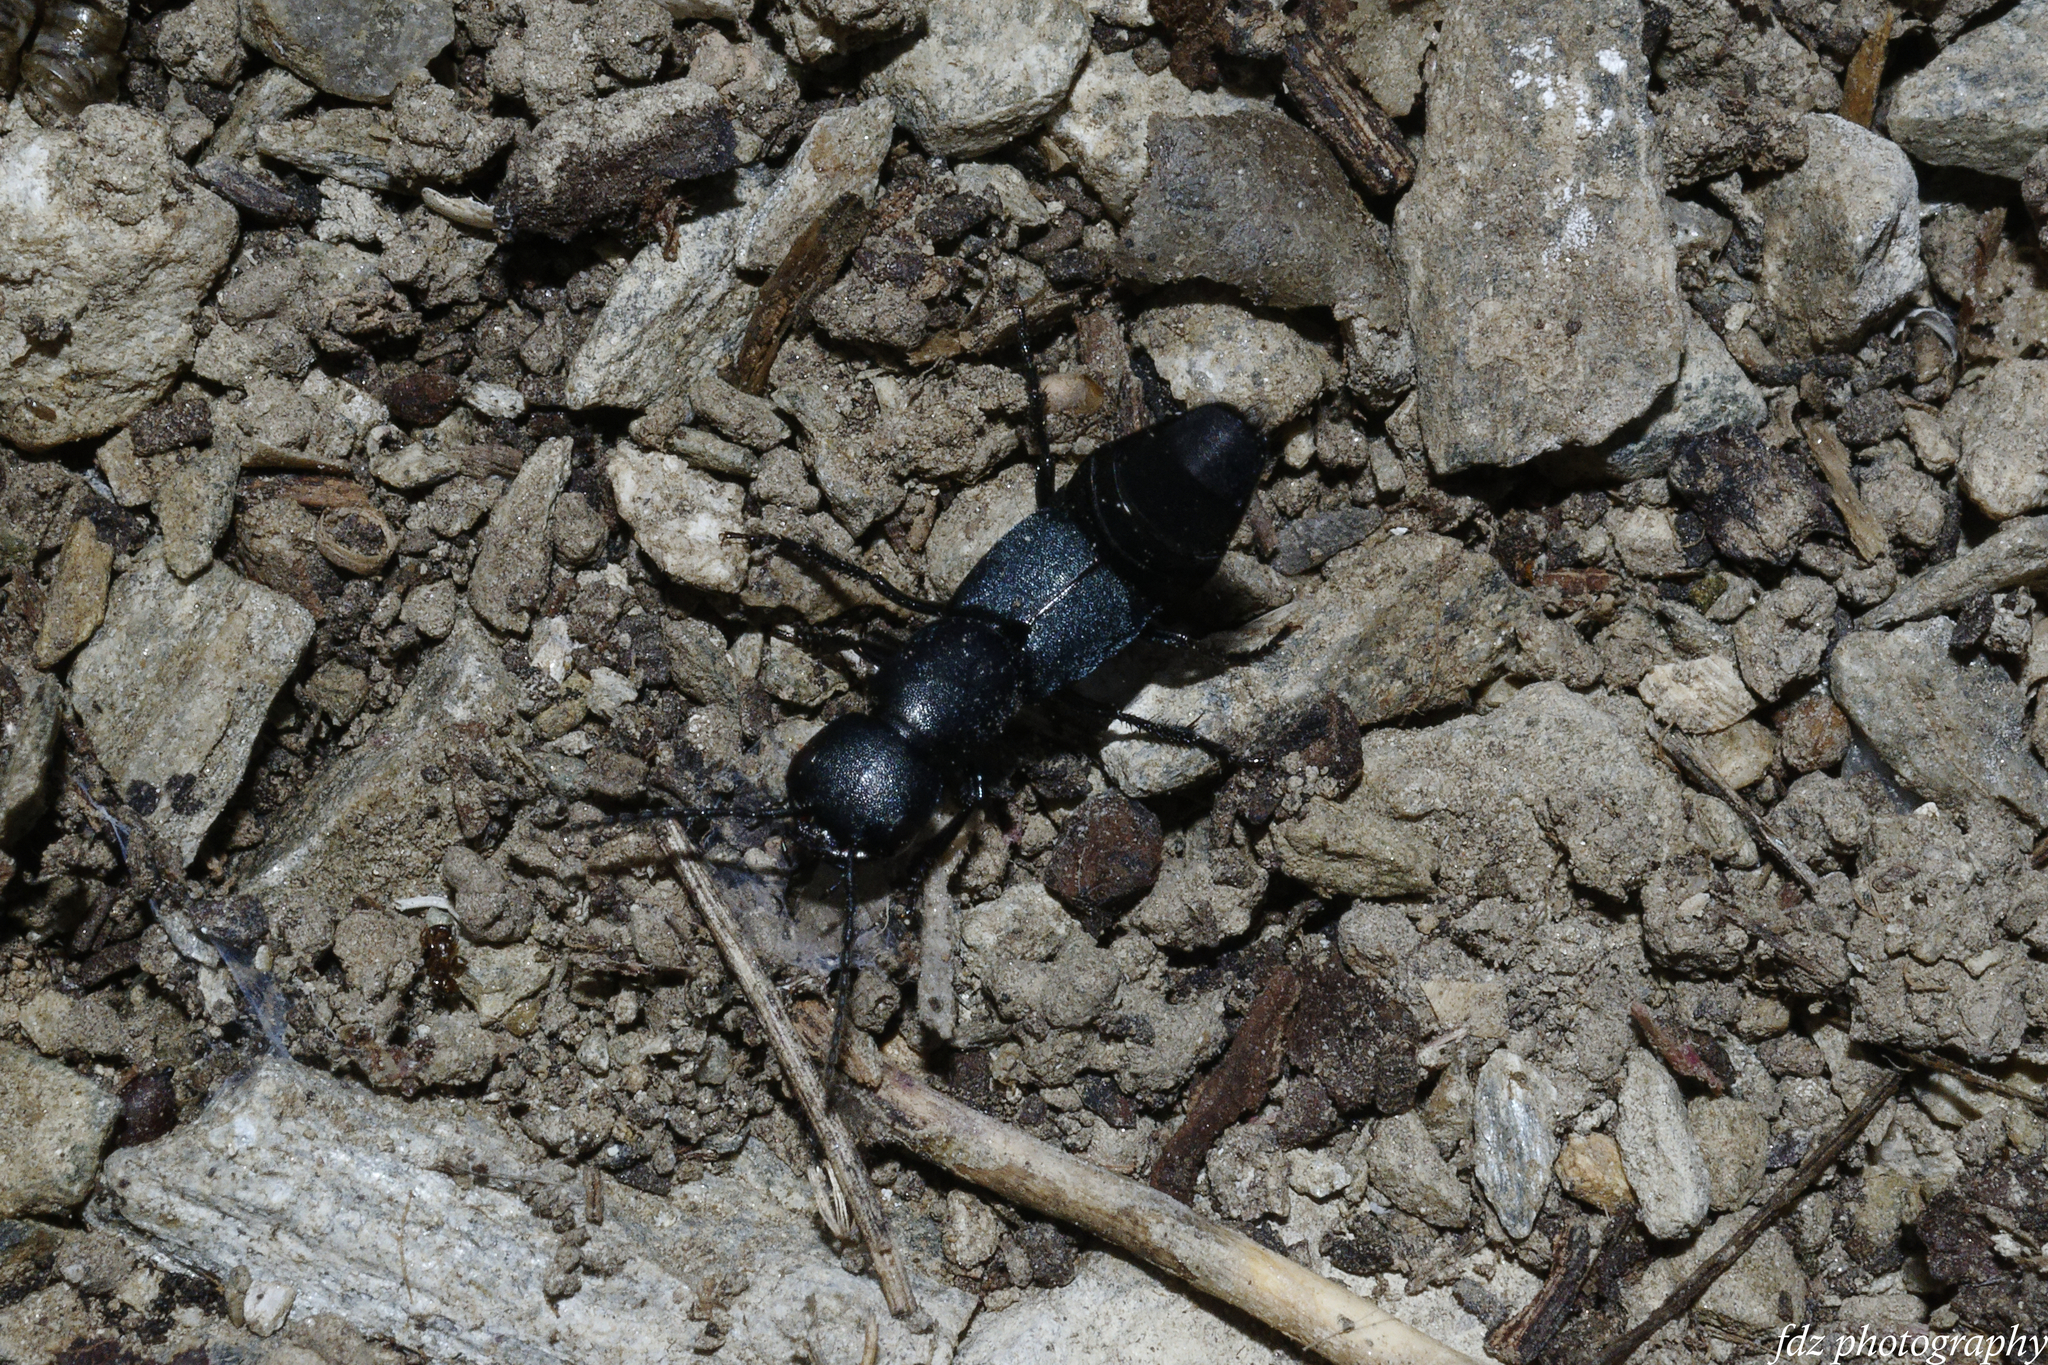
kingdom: Animalia
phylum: Arthropoda
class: Insecta
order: Coleoptera
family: Staphylinidae
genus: Ocypus
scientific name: Ocypus ophthalmicus
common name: Blue rove-beetle
